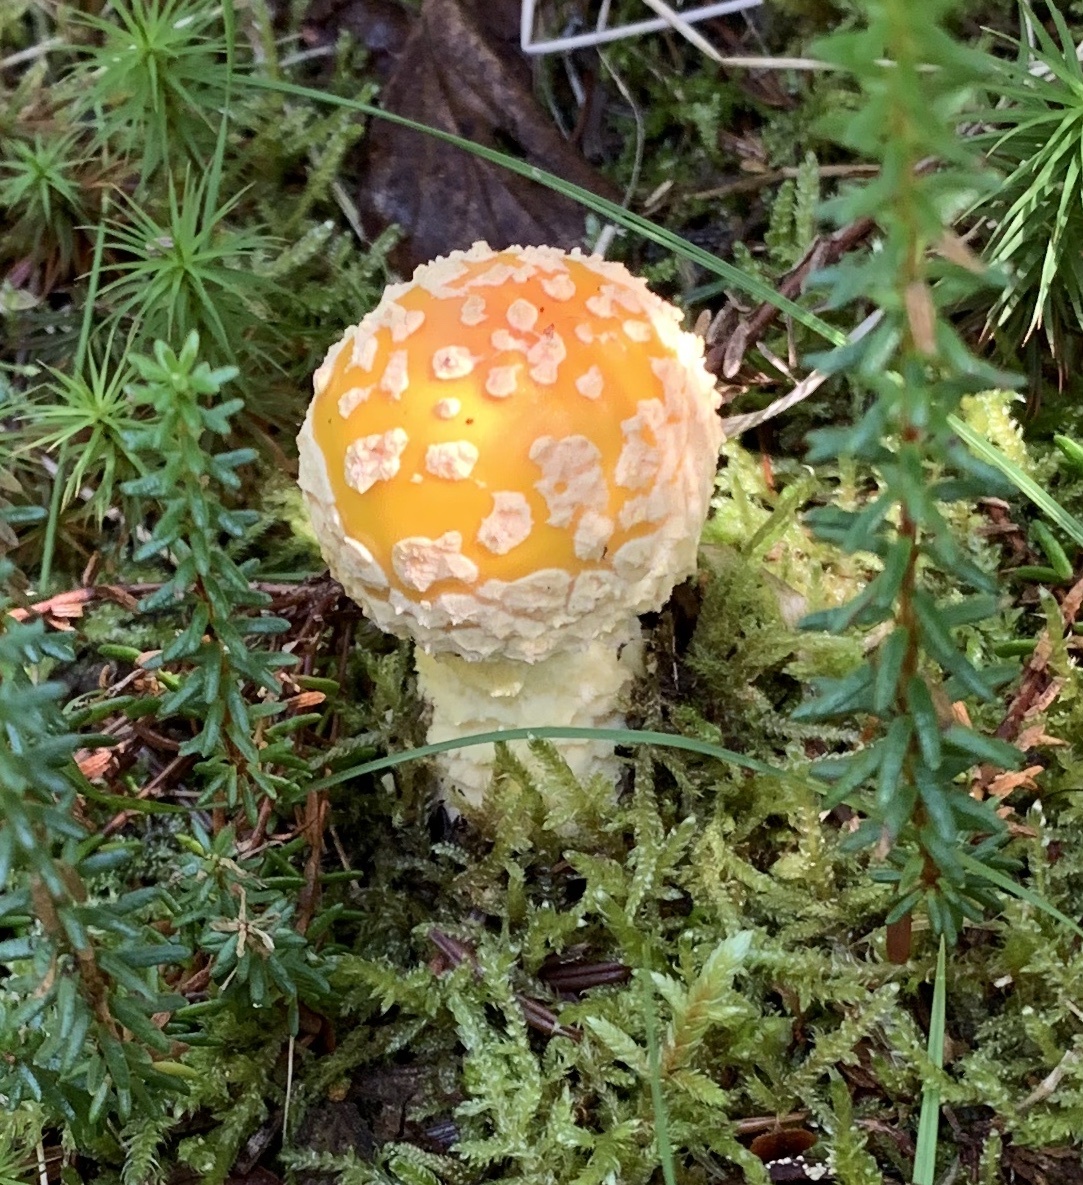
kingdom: Fungi
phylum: Basidiomycota
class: Agaricomycetes
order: Agaricales
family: Amanitaceae
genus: Amanita
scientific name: Amanita muscaria
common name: Fly agaric
